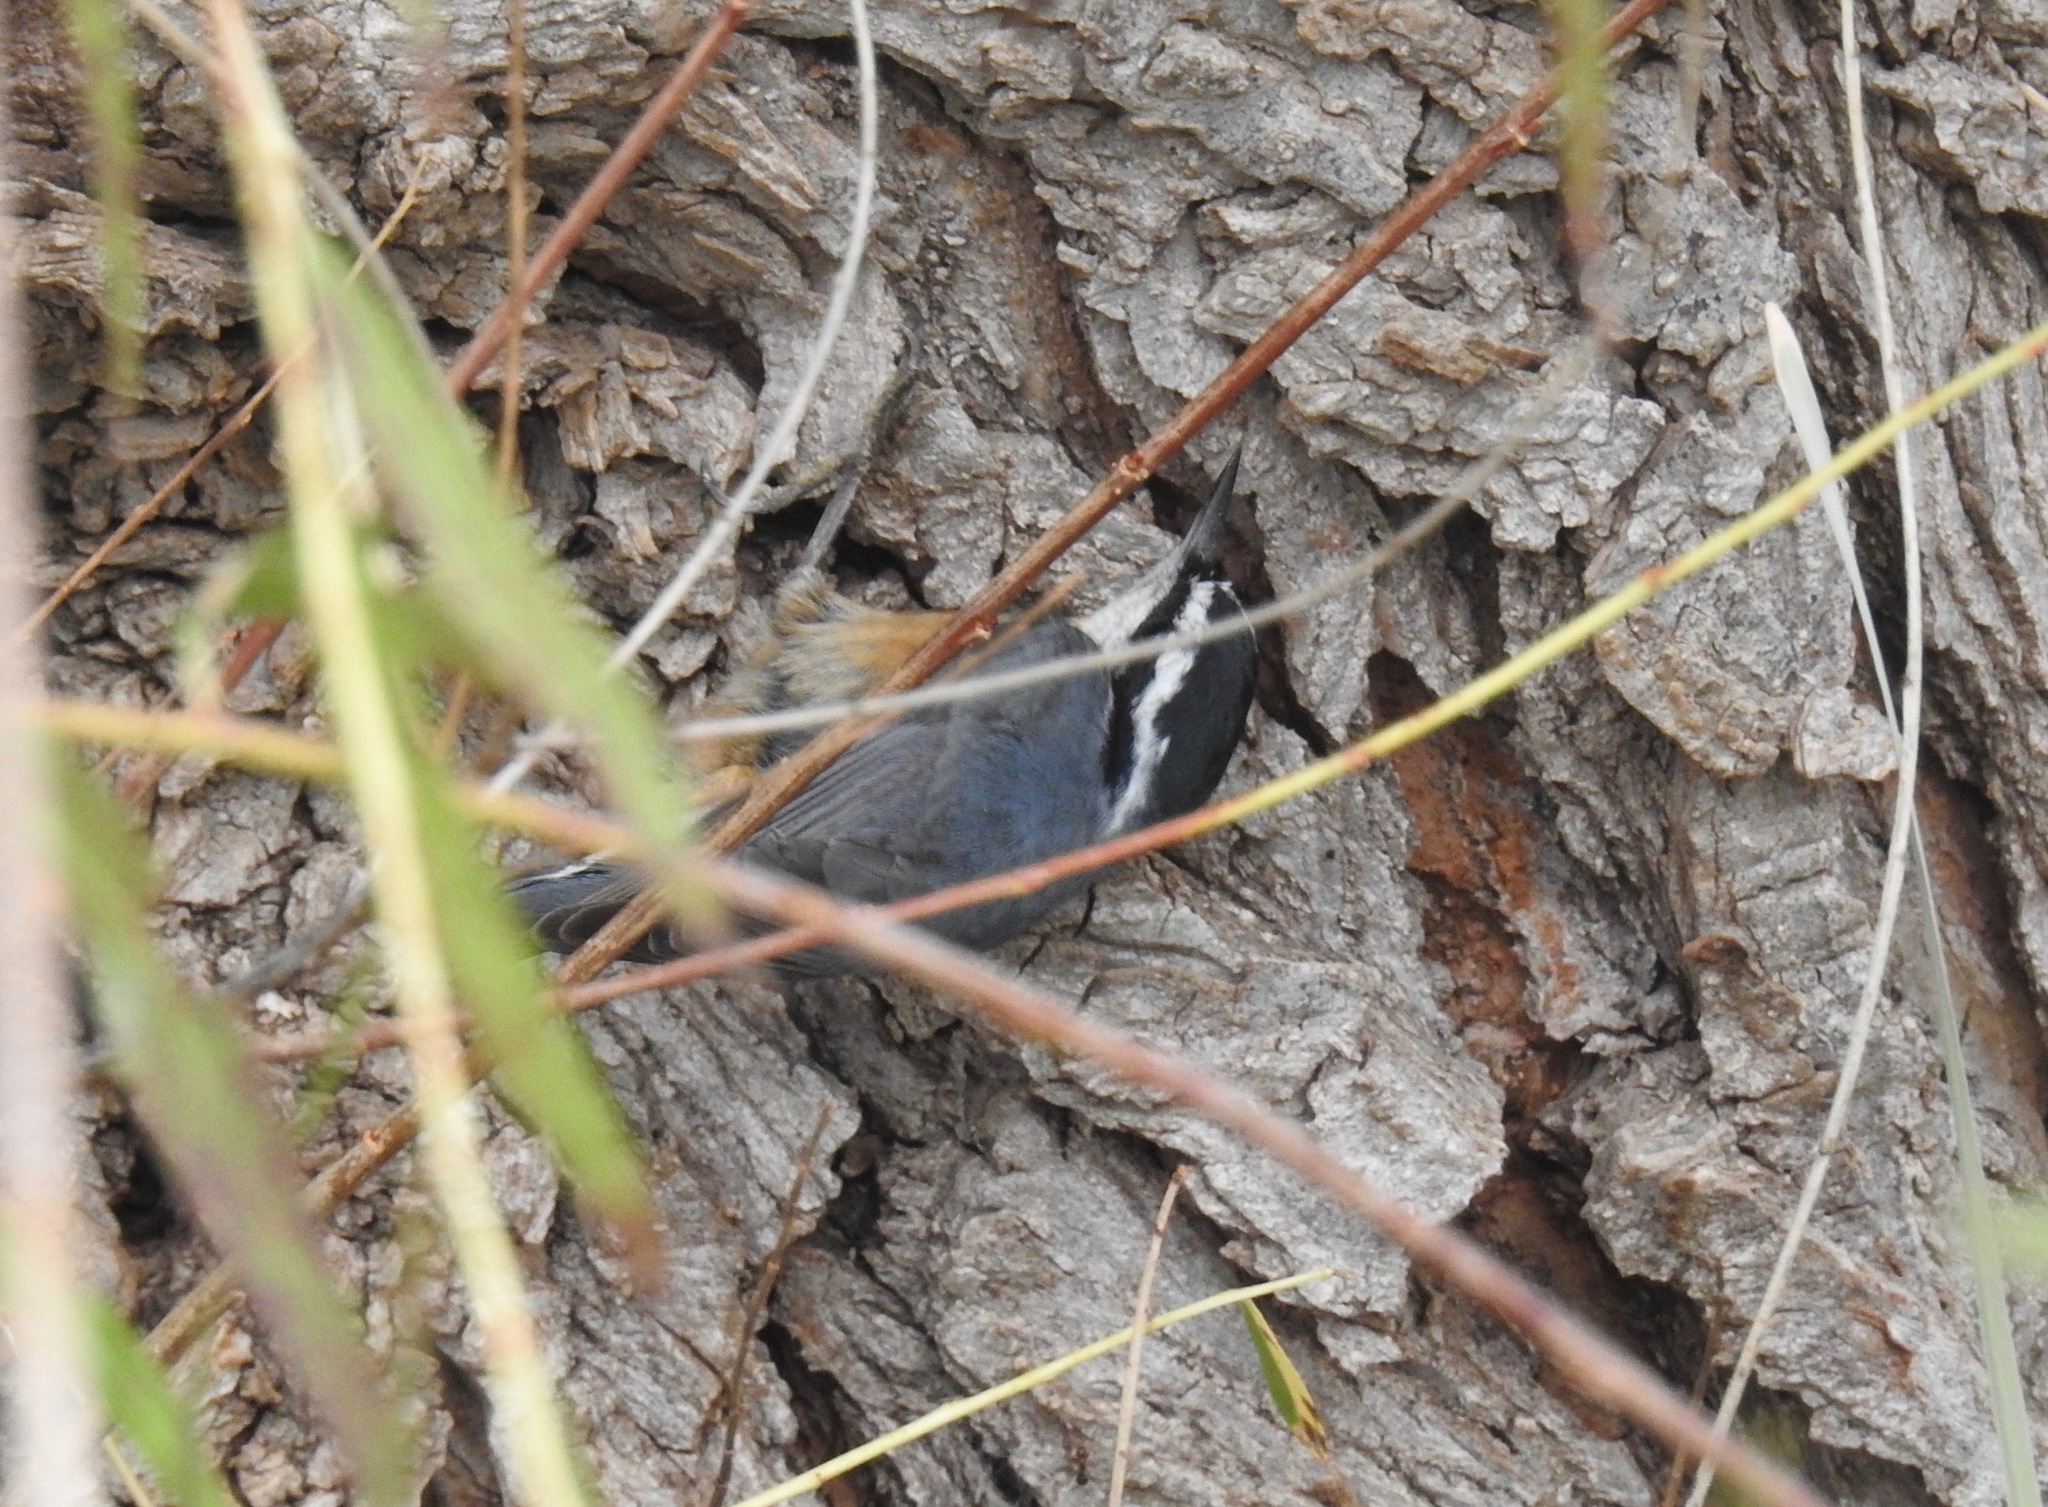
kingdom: Animalia
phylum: Chordata
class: Aves
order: Passeriformes
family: Sittidae
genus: Sitta
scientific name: Sitta canadensis
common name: Red-breasted nuthatch
